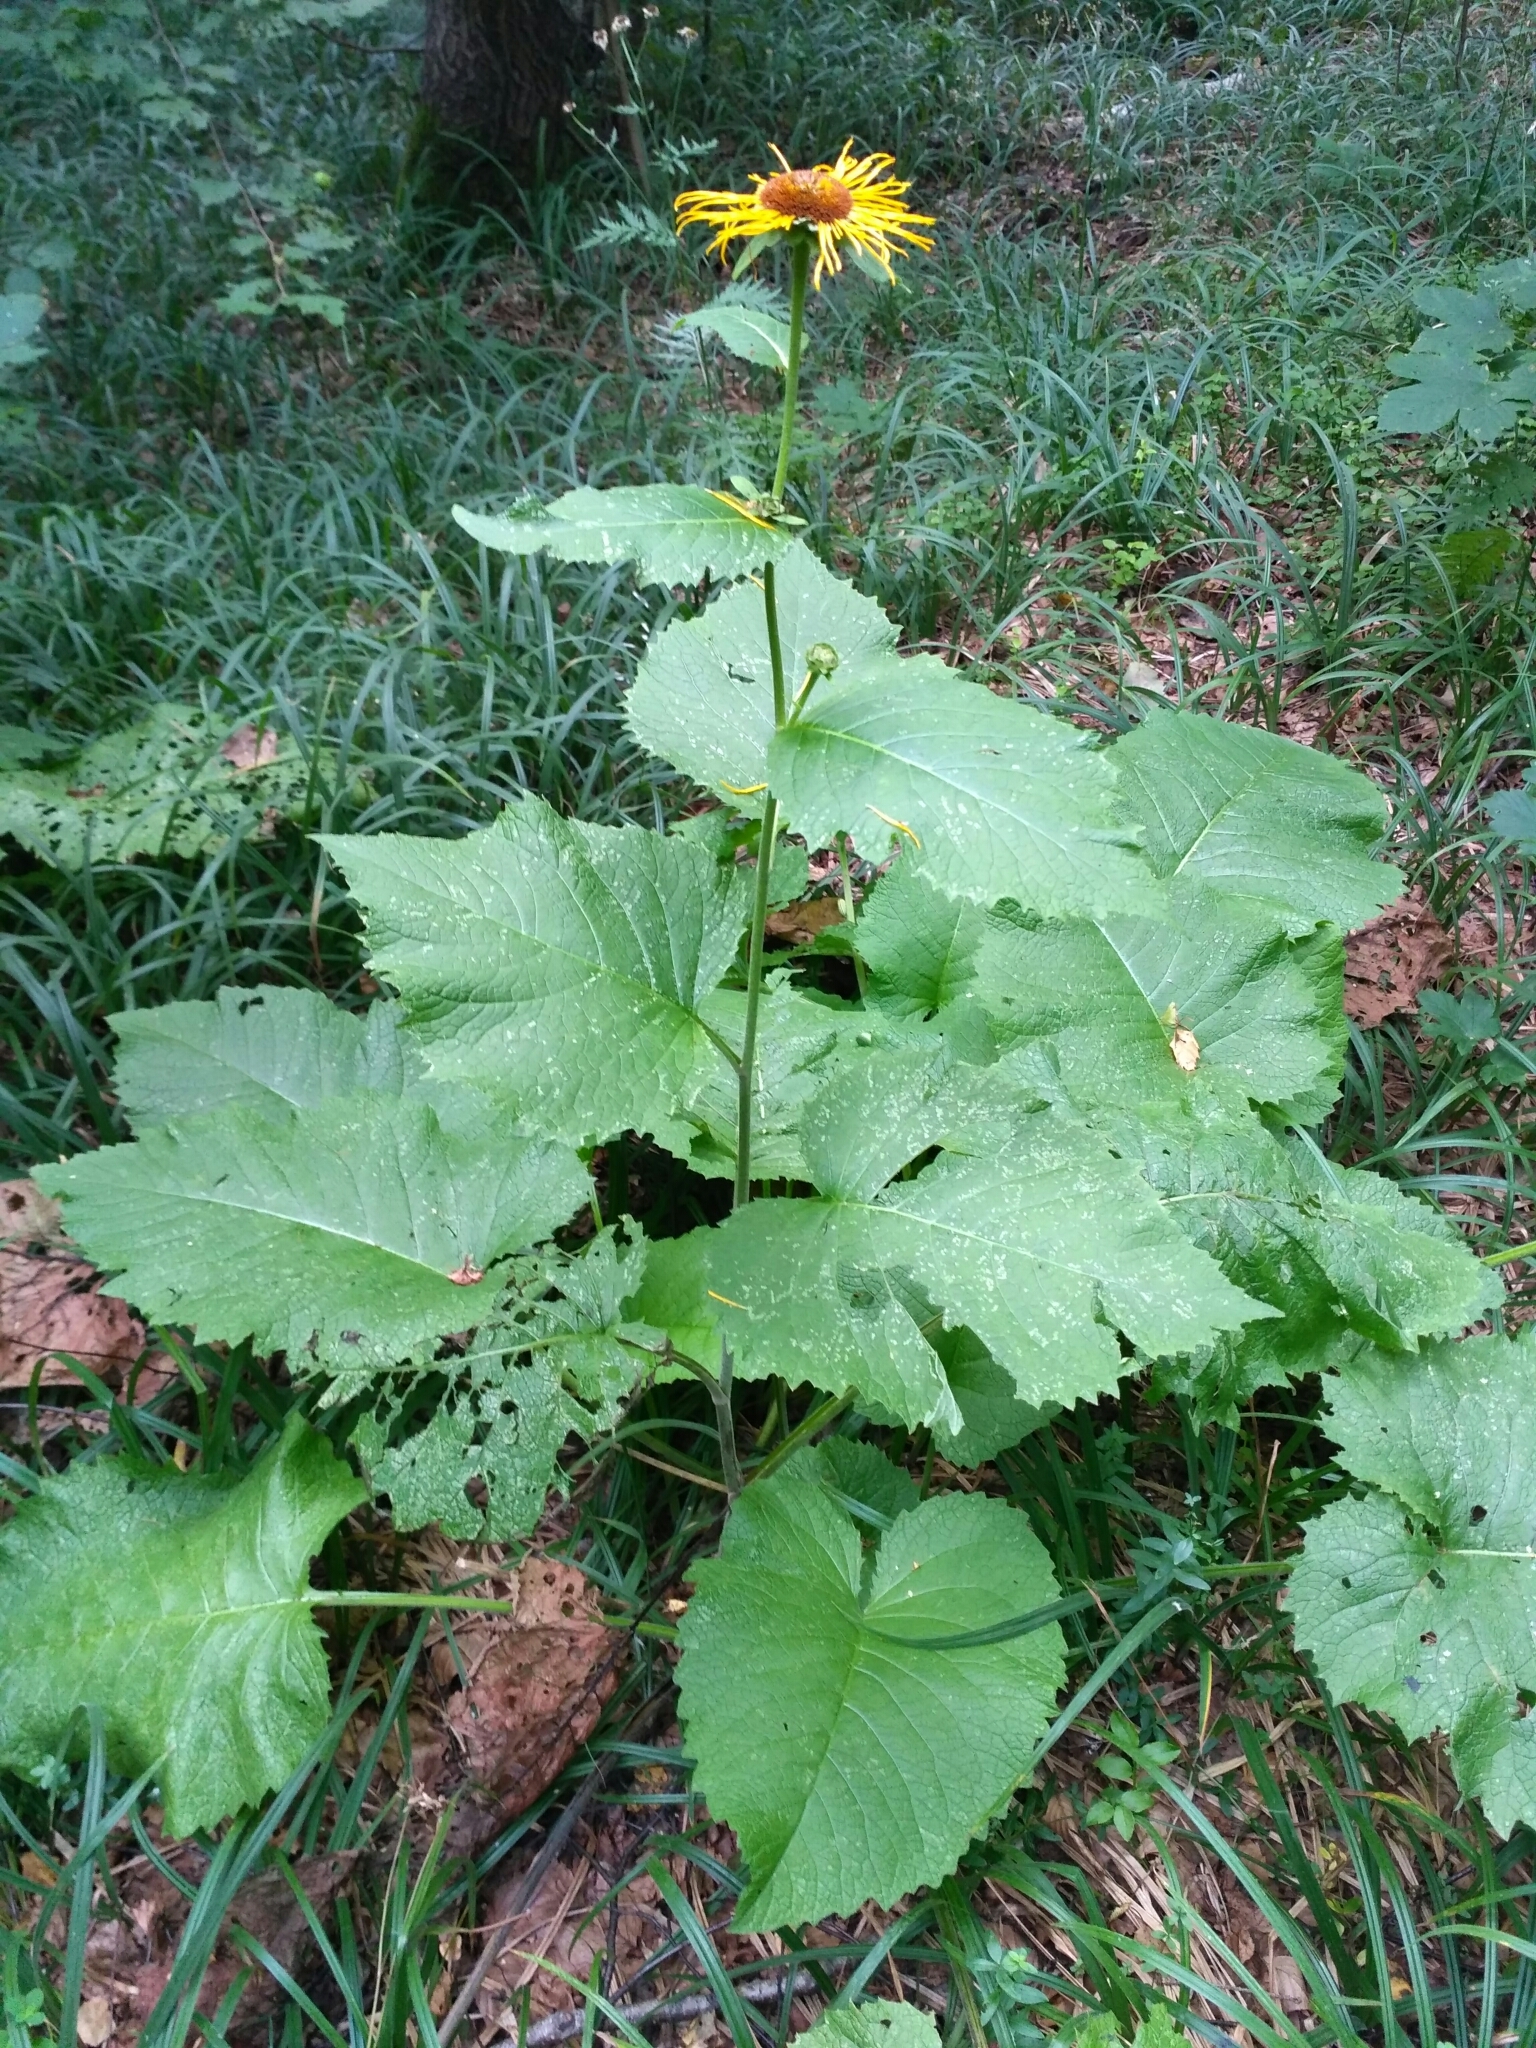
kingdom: Plantae
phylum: Tracheophyta
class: Magnoliopsida
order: Asterales
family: Asteraceae
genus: Telekia
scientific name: Telekia speciosa
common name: Yellow oxeye
